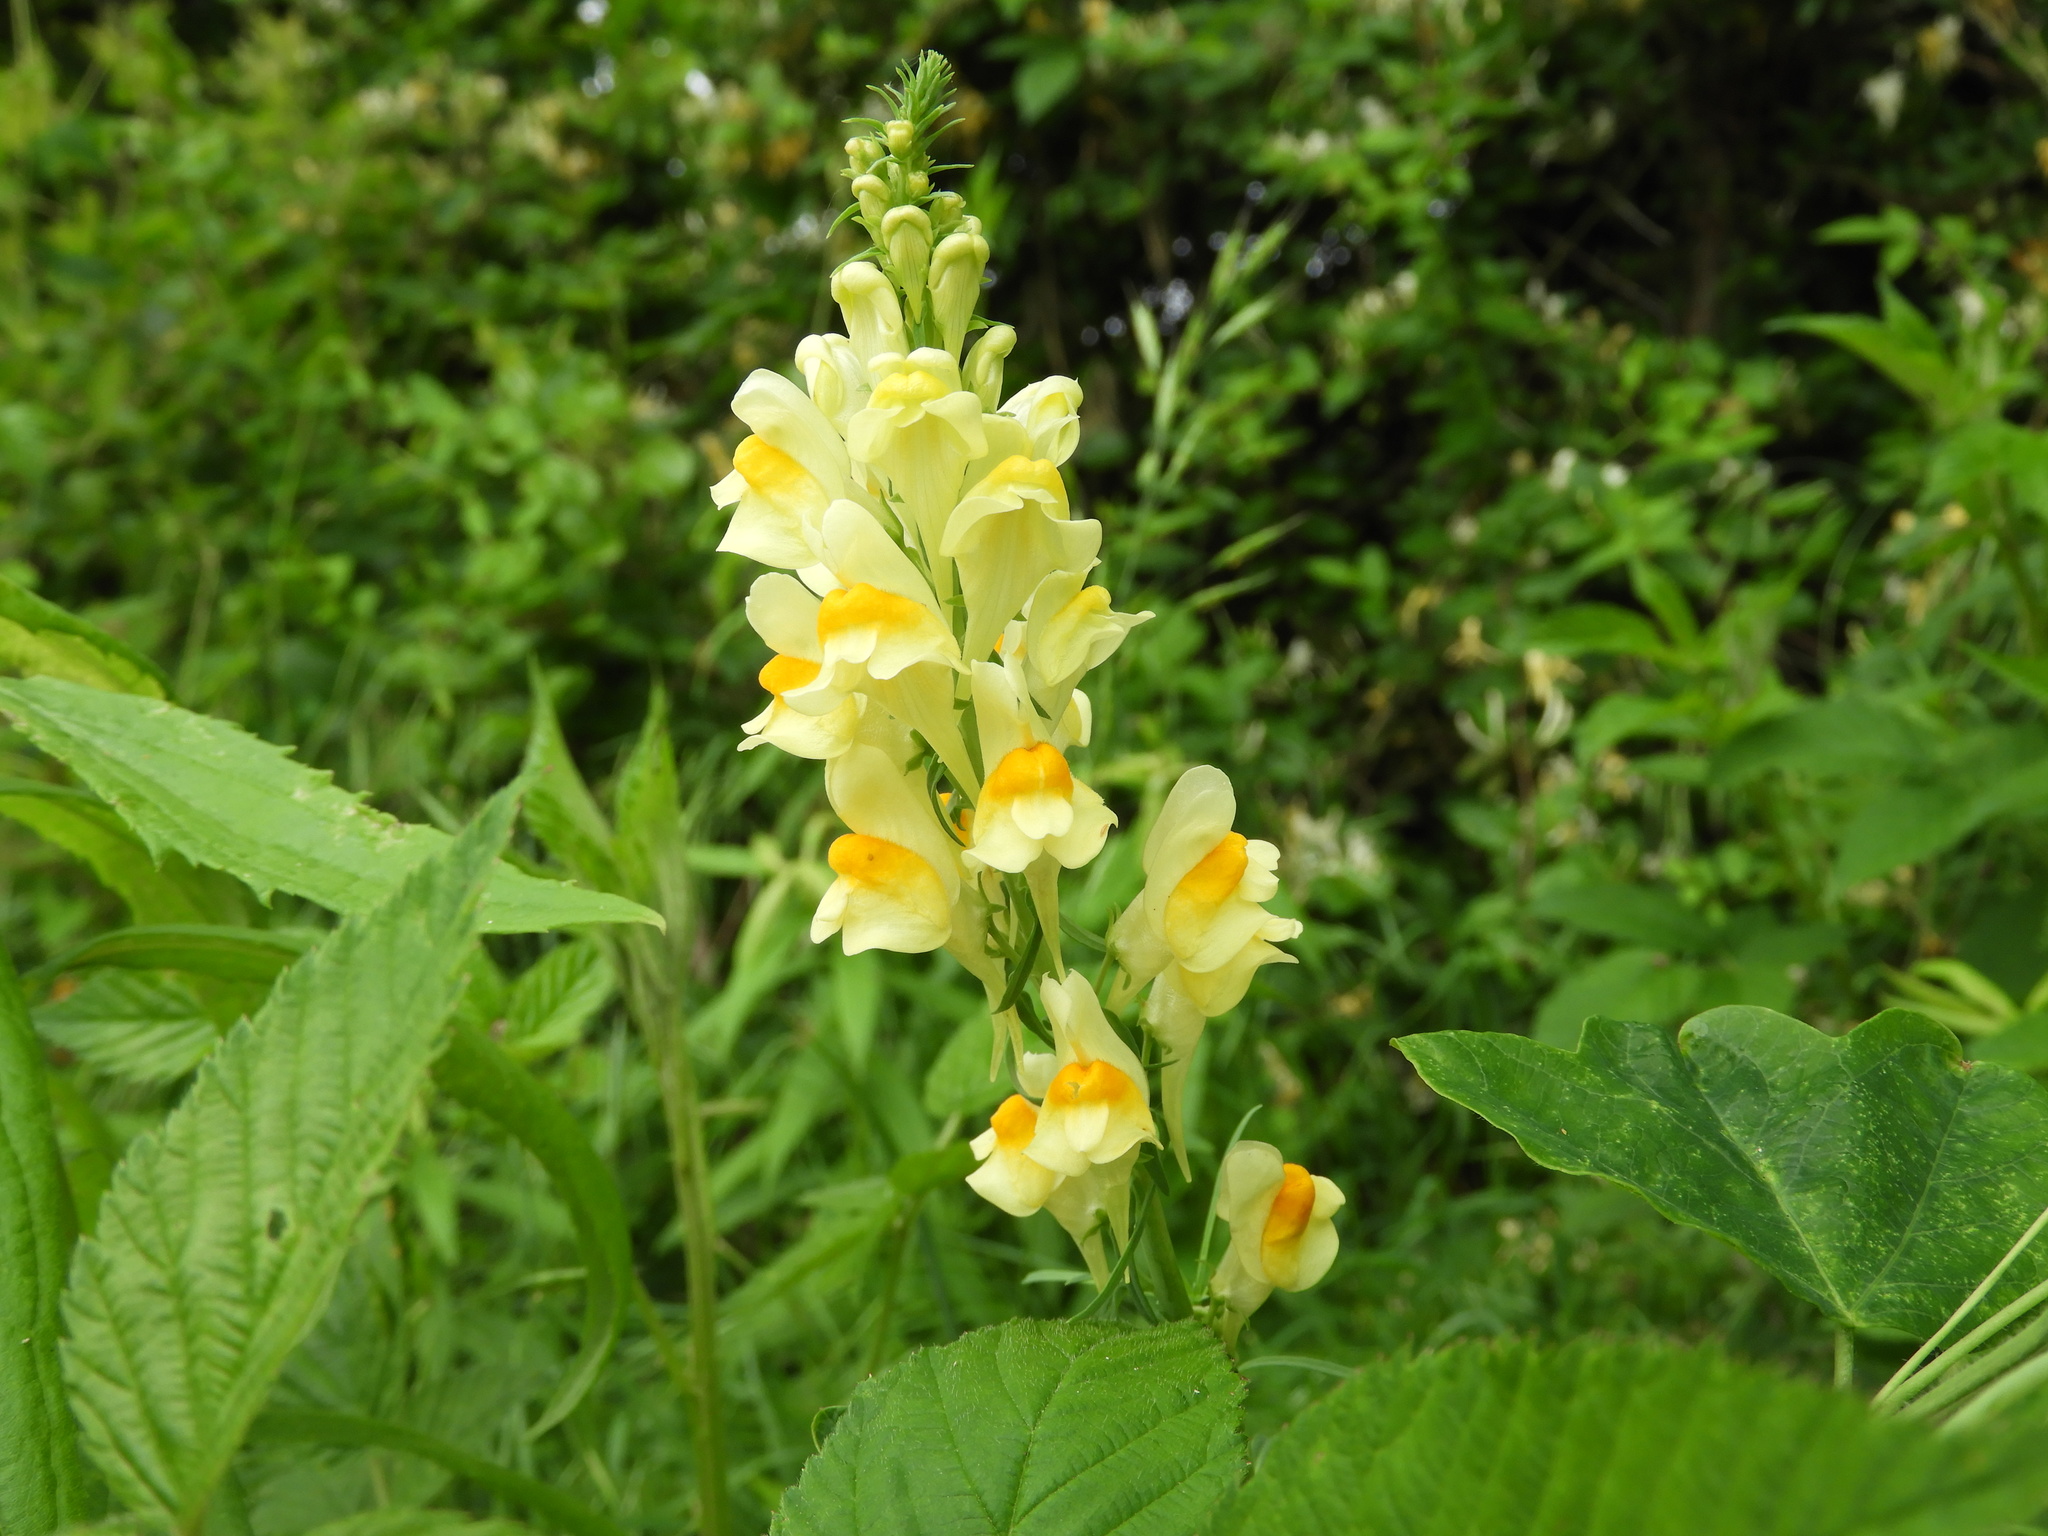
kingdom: Plantae
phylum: Tracheophyta
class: Magnoliopsida
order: Lamiales
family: Plantaginaceae
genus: Linaria
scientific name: Linaria vulgaris
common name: Butter and eggs
